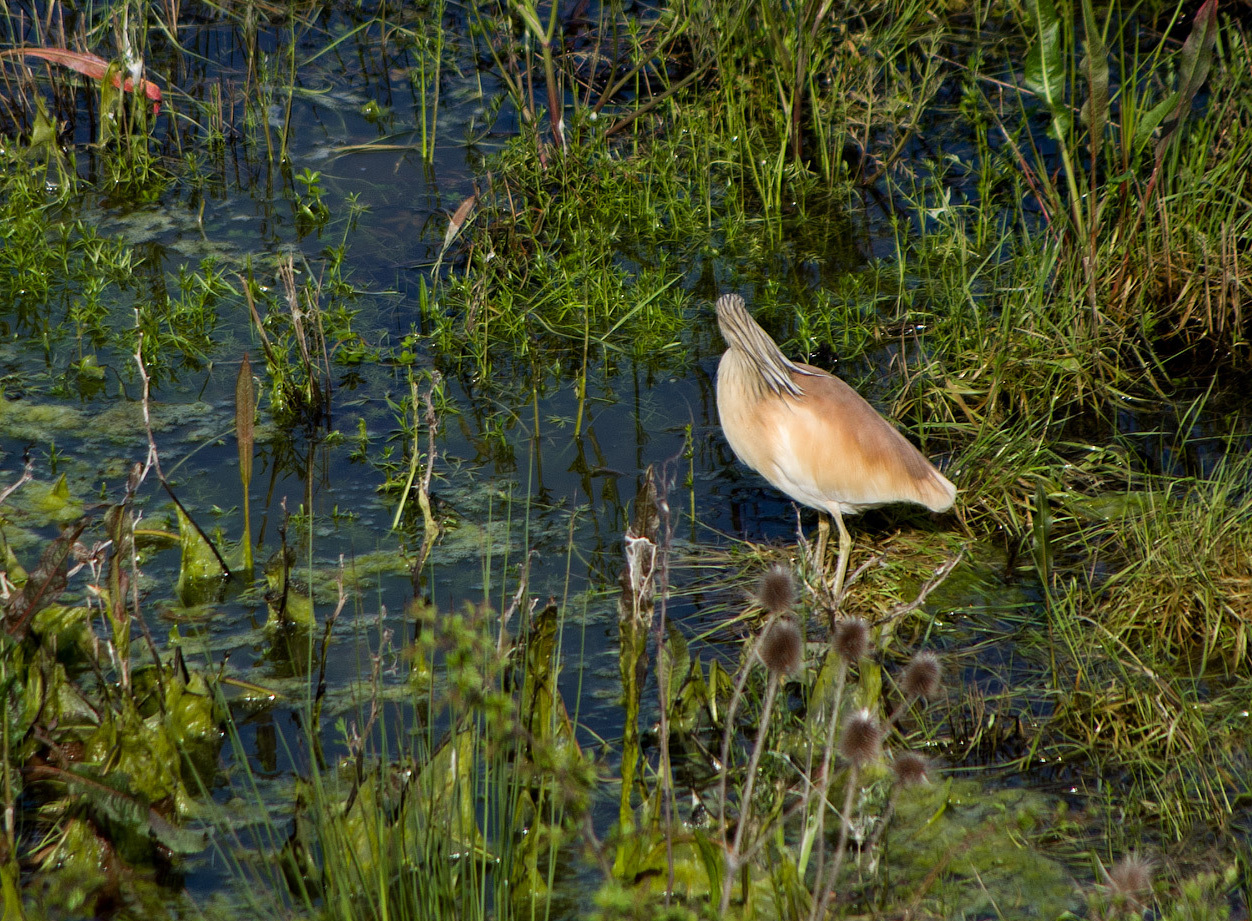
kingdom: Animalia
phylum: Chordata
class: Aves
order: Pelecaniformes
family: Ardeidae
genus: Ardeola
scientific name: Ardeola ralloides
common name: Squacco heron
